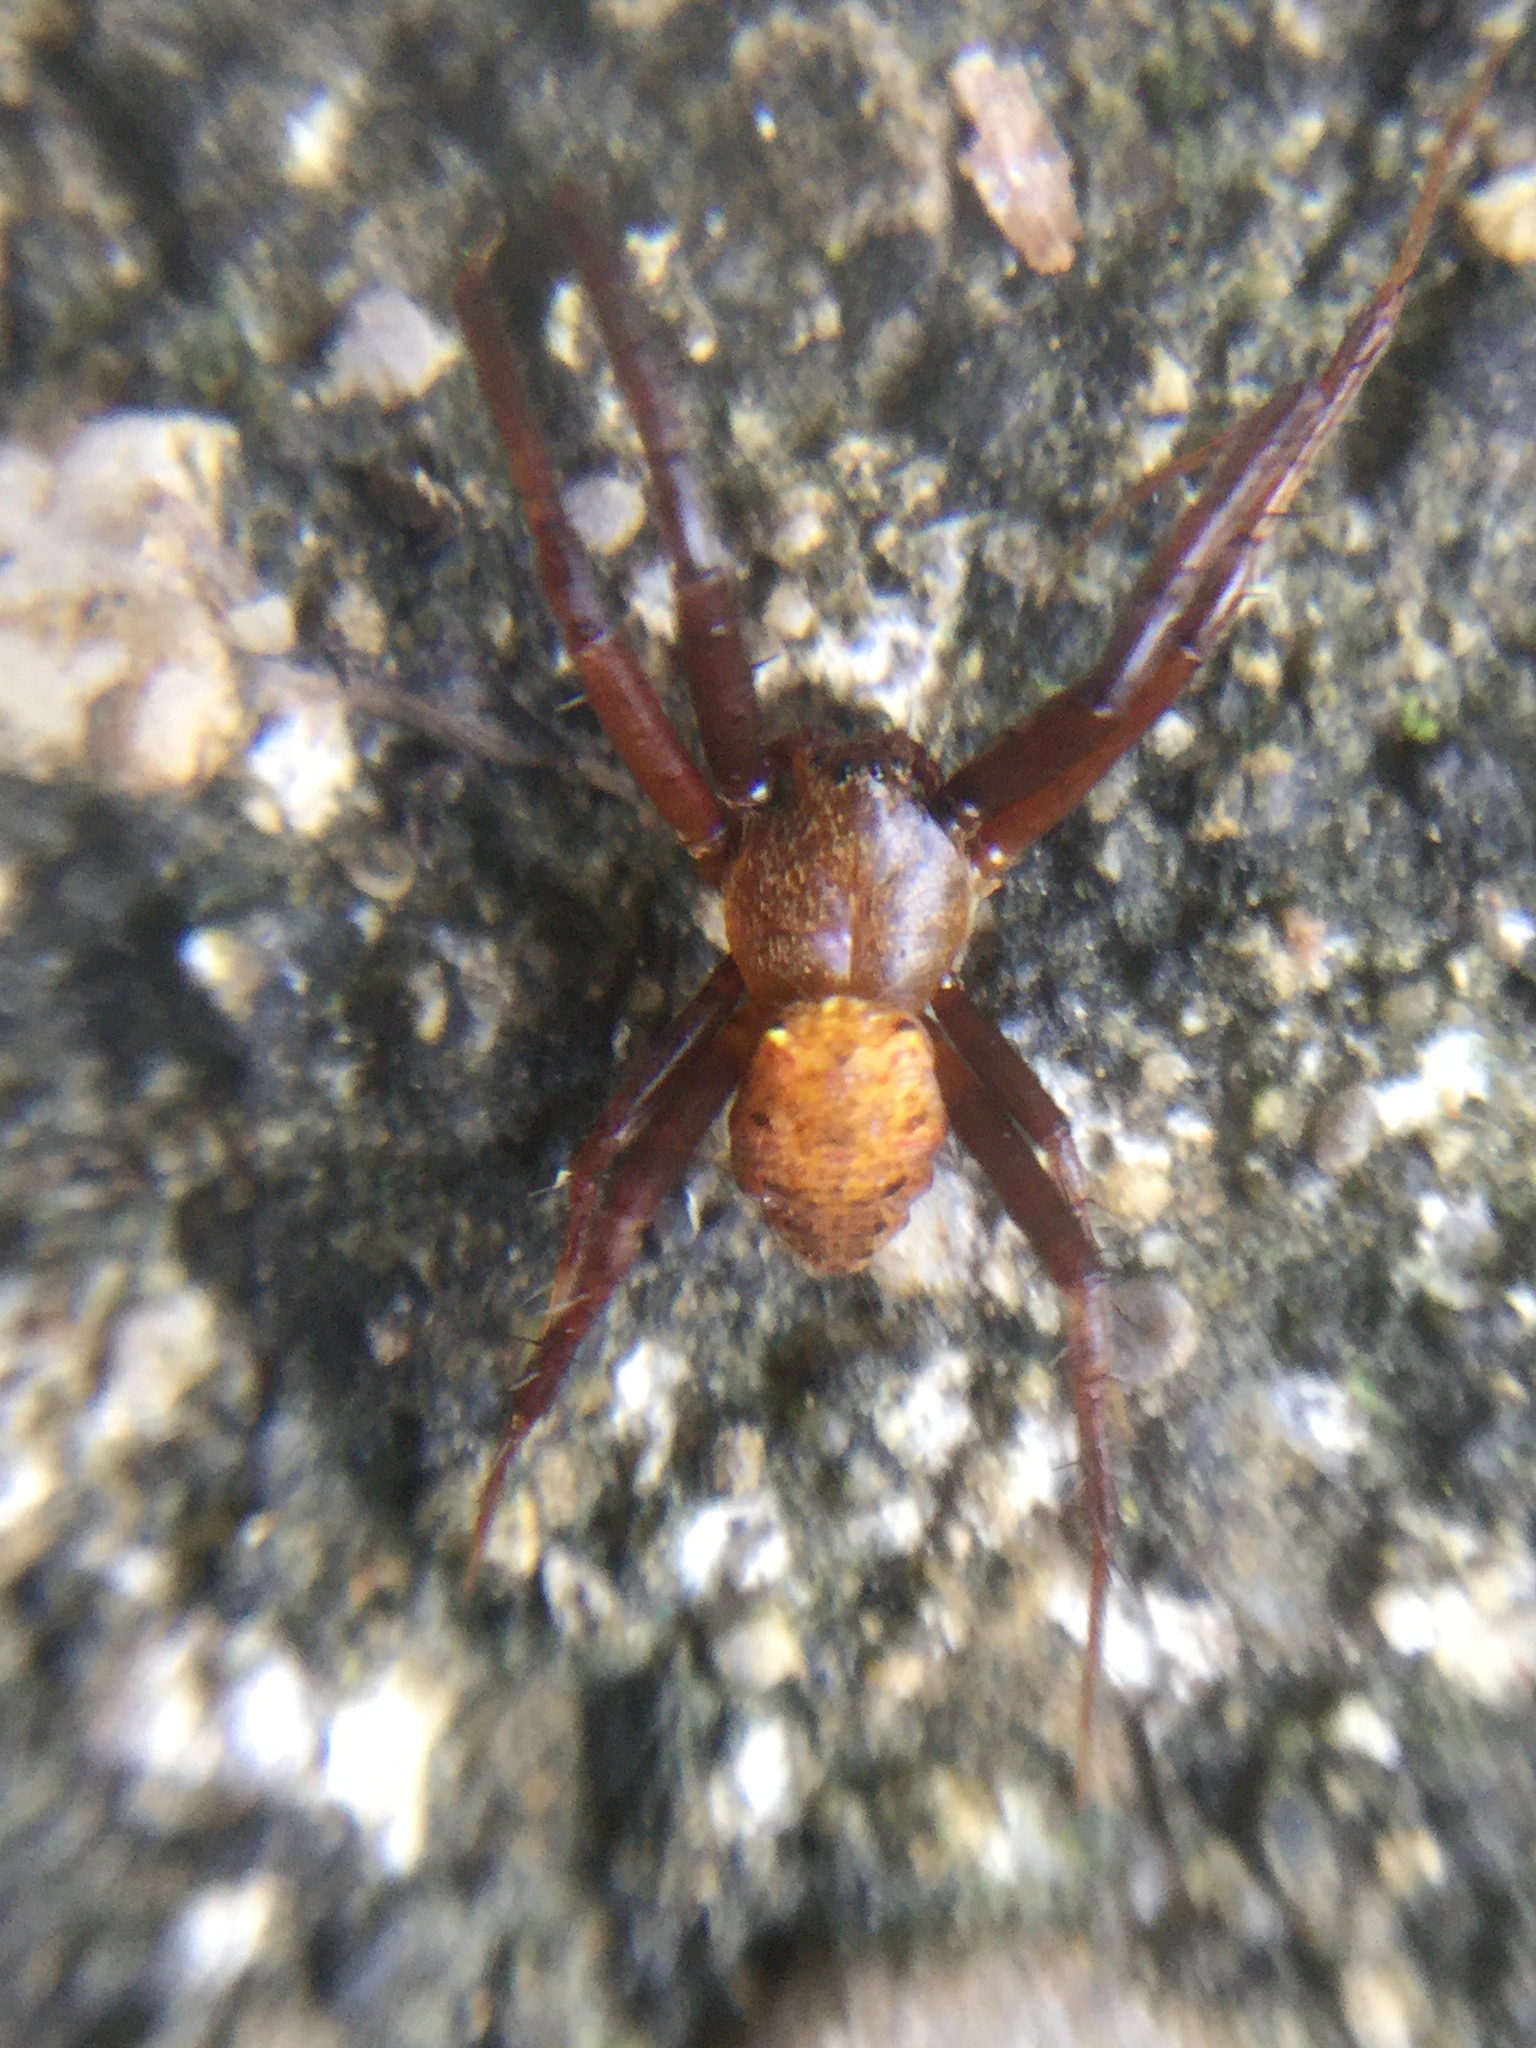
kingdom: Animalia
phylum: Arthropoda
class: Arachnida
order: Araneae
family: Araneidae
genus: Gea
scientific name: Gea heptagon
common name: Orb weavers
